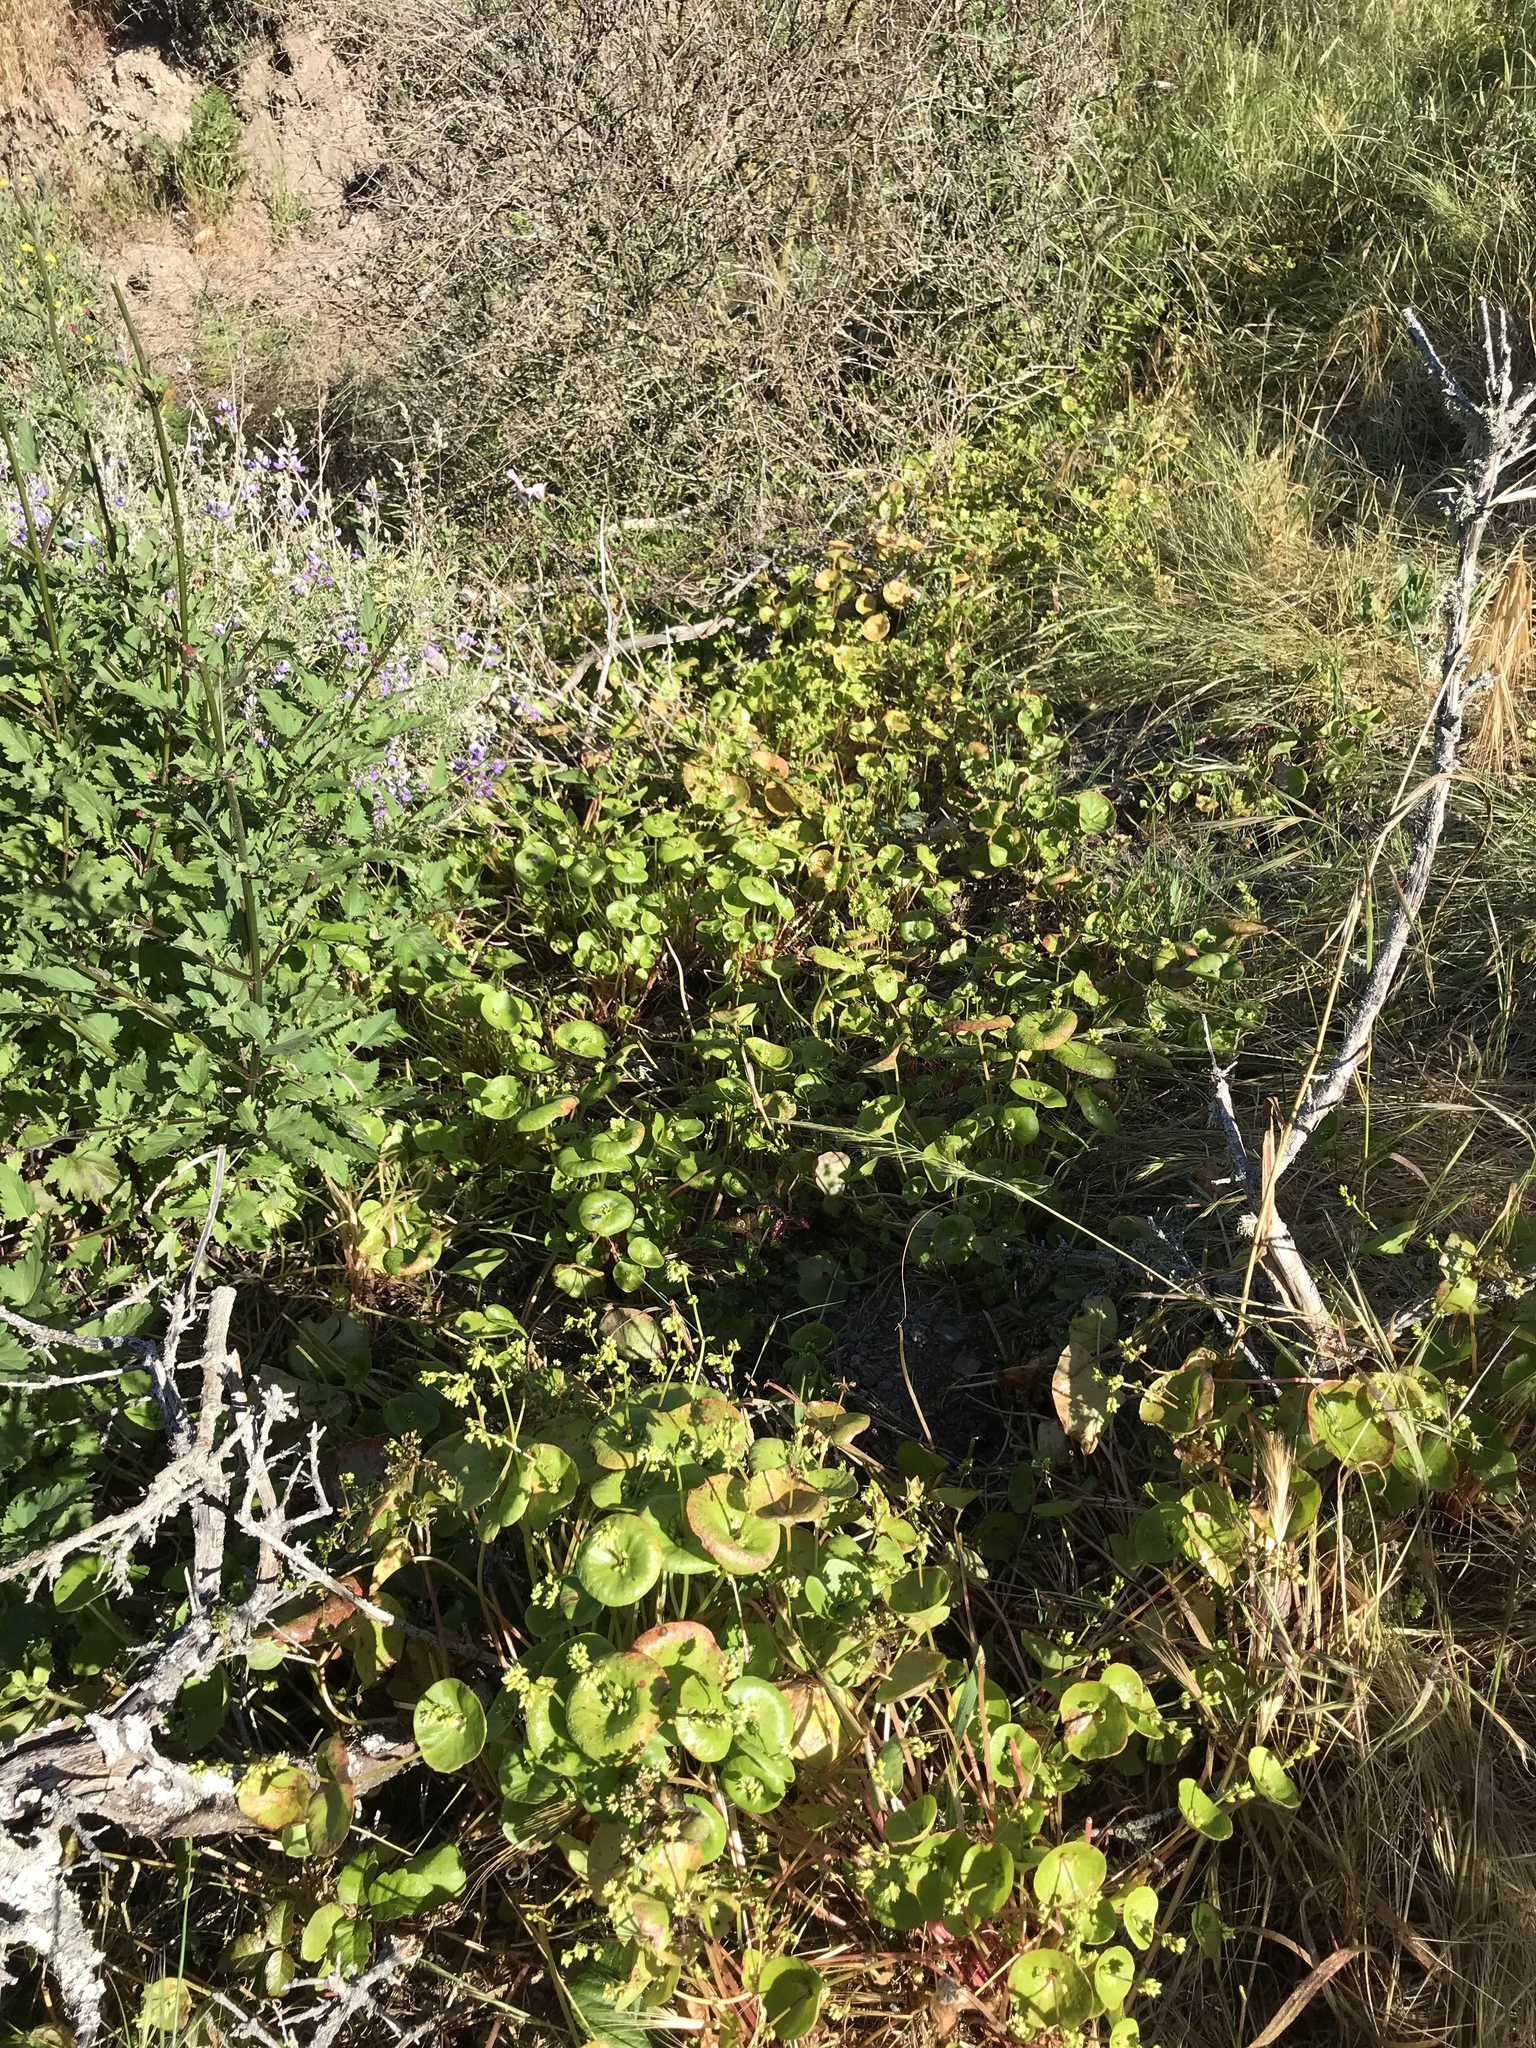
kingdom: Plantae
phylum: Tracheophyta
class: Magnoliopsida
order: Caryophyllales
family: Montiaceae
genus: Claytonia
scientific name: Claytonia perfoliata
